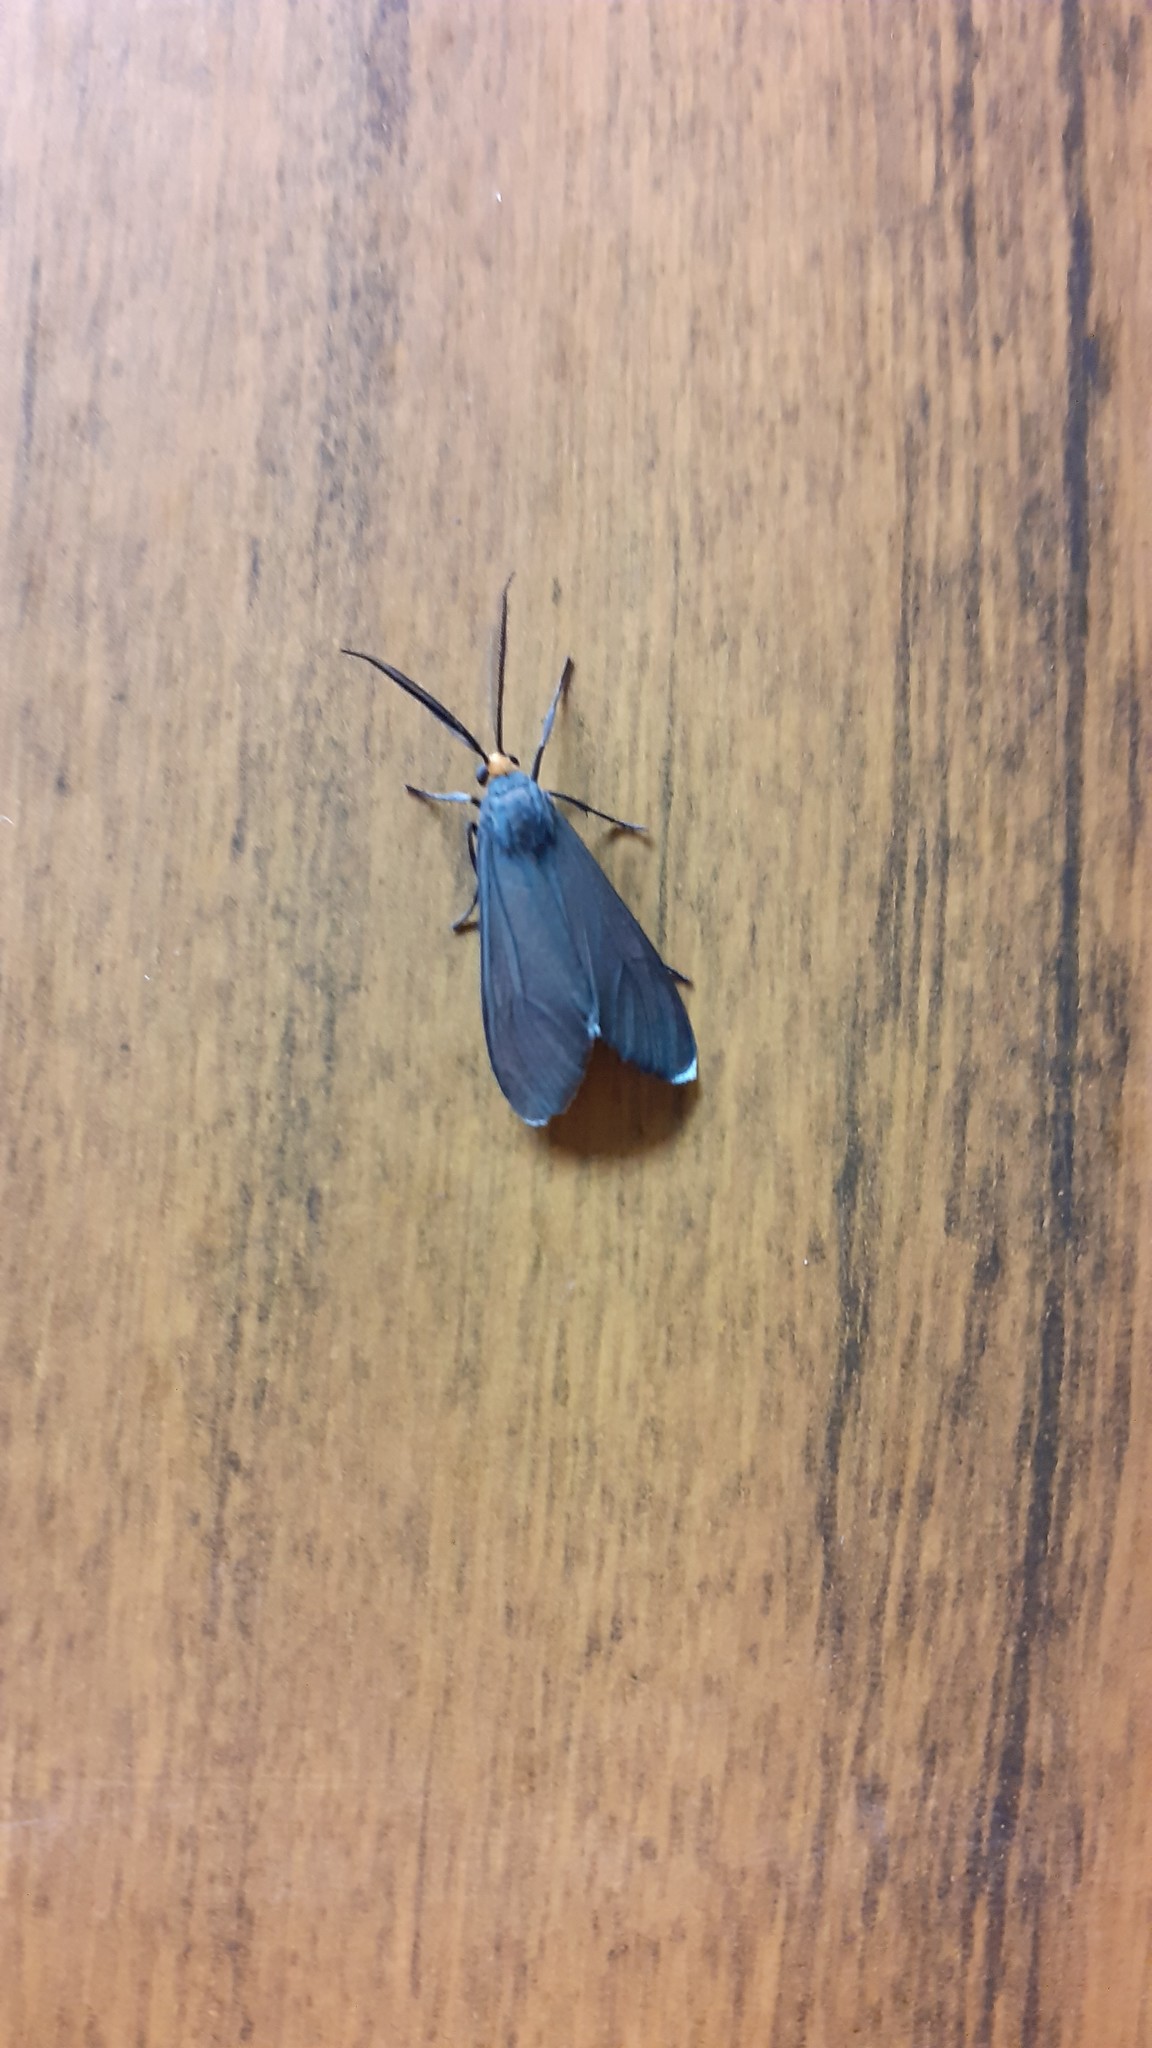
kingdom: Animalia
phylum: Arthropoda
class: Insecta
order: Lepidoptera
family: Erebidae
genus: Ctenucha
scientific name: Ctenucha rubriceps
